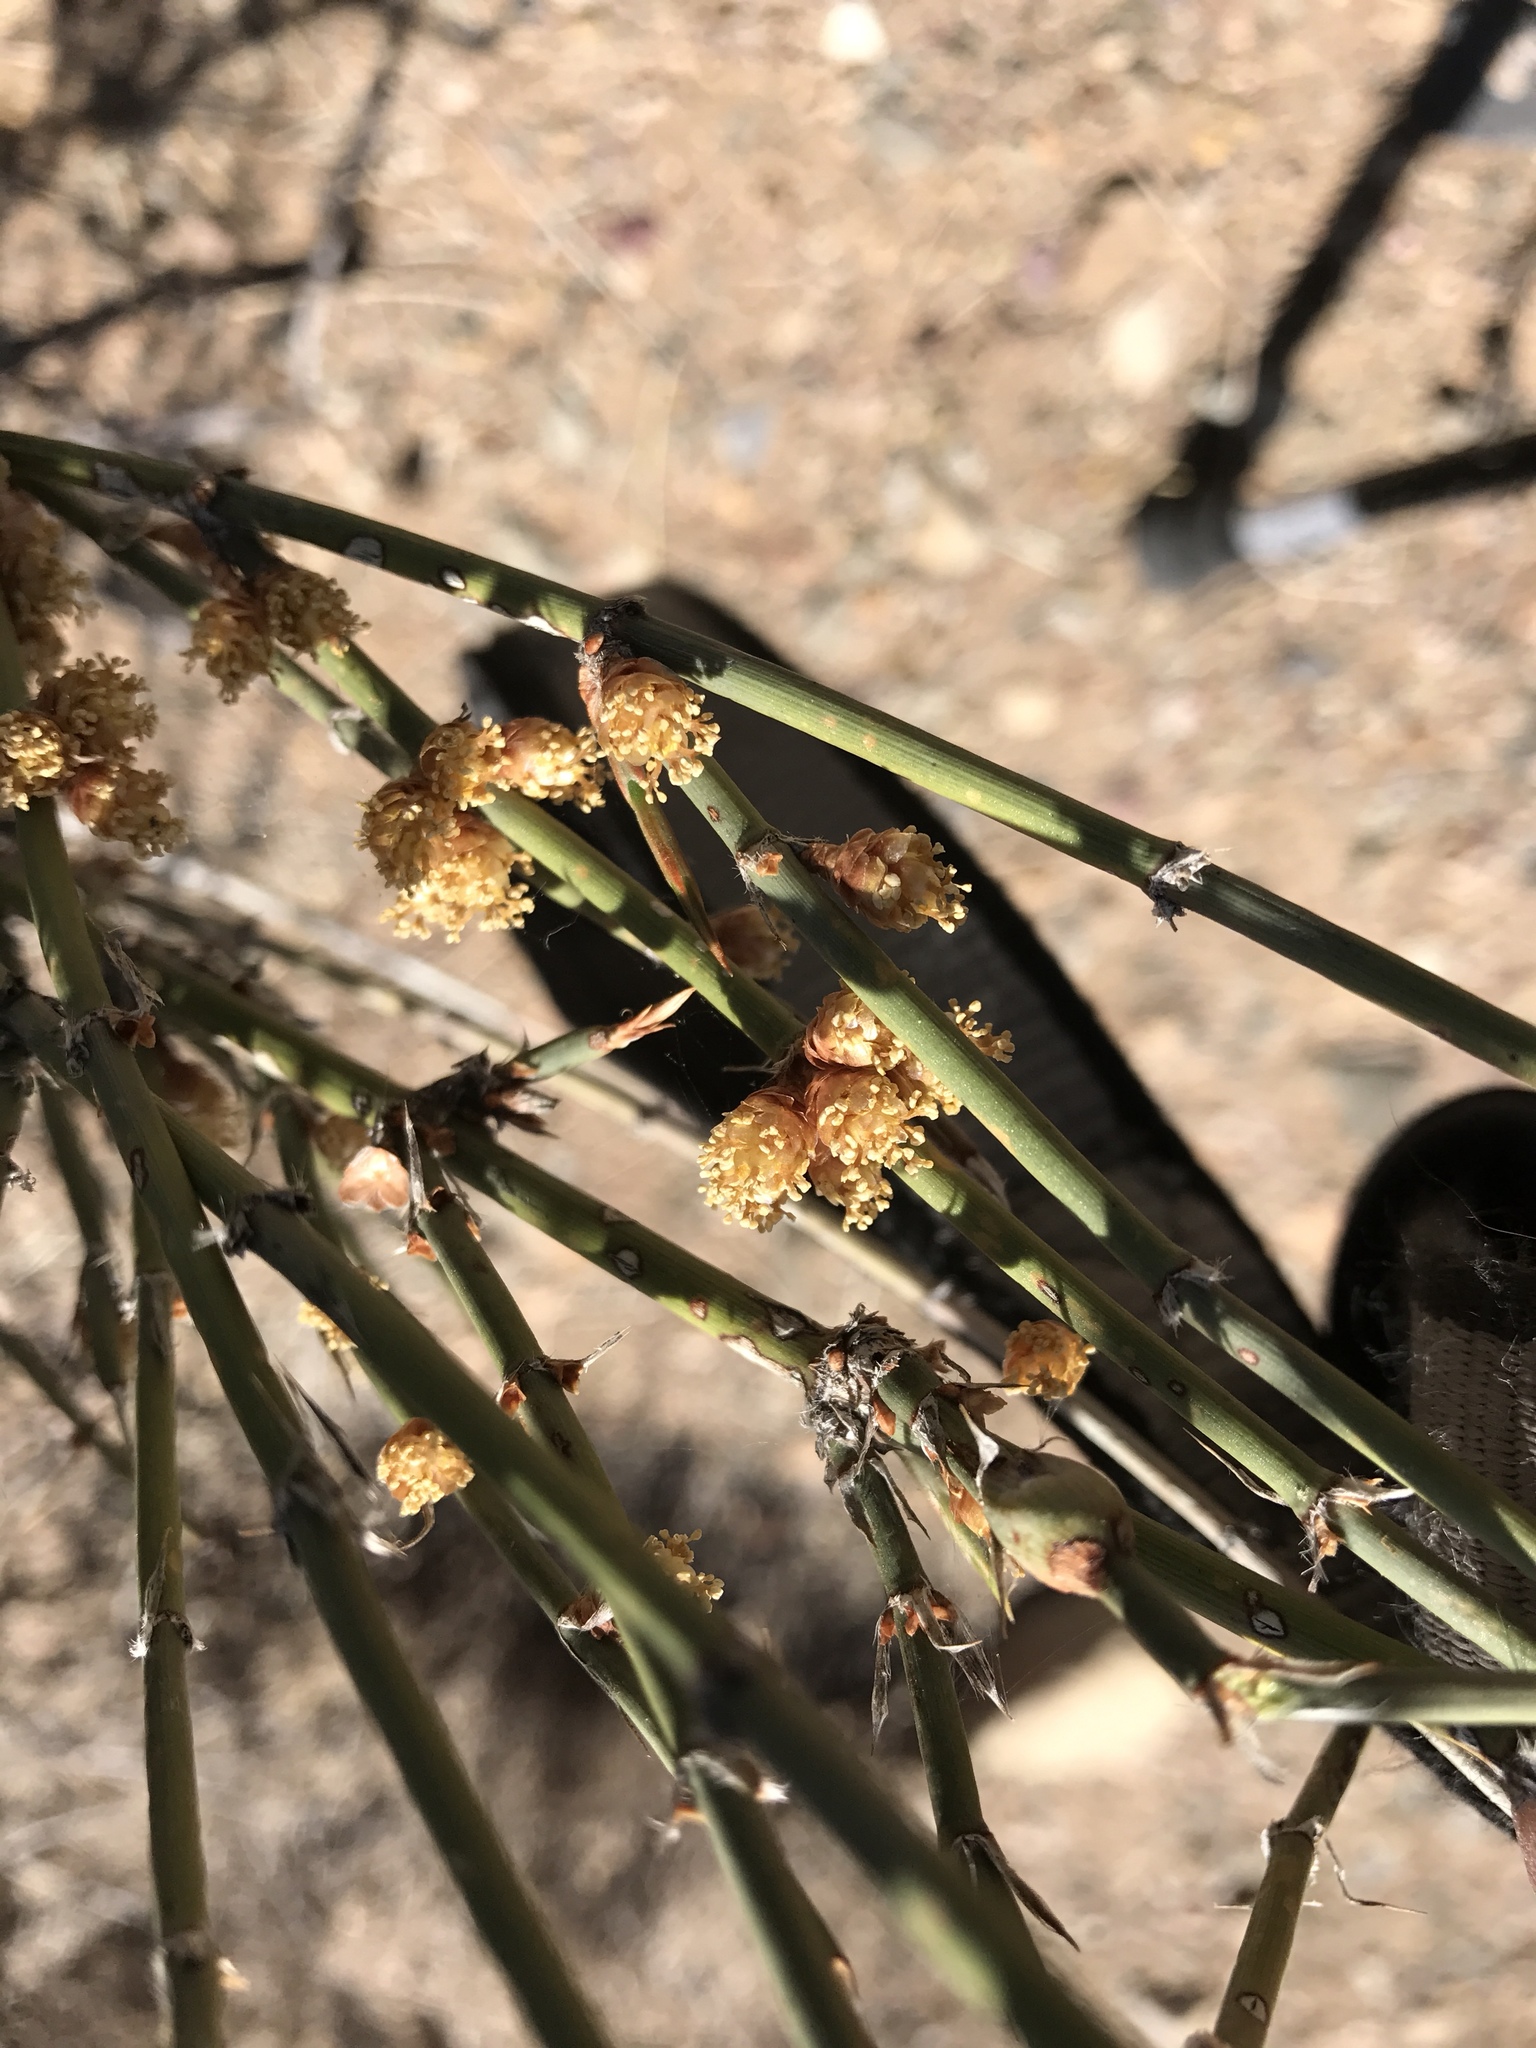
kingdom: Plantae
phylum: Tracheophyta
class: Gnetopsida
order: Ephedrales
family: Ephedraceae
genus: Ephedra
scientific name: Ephedra trifurca
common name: Mexican-tea
